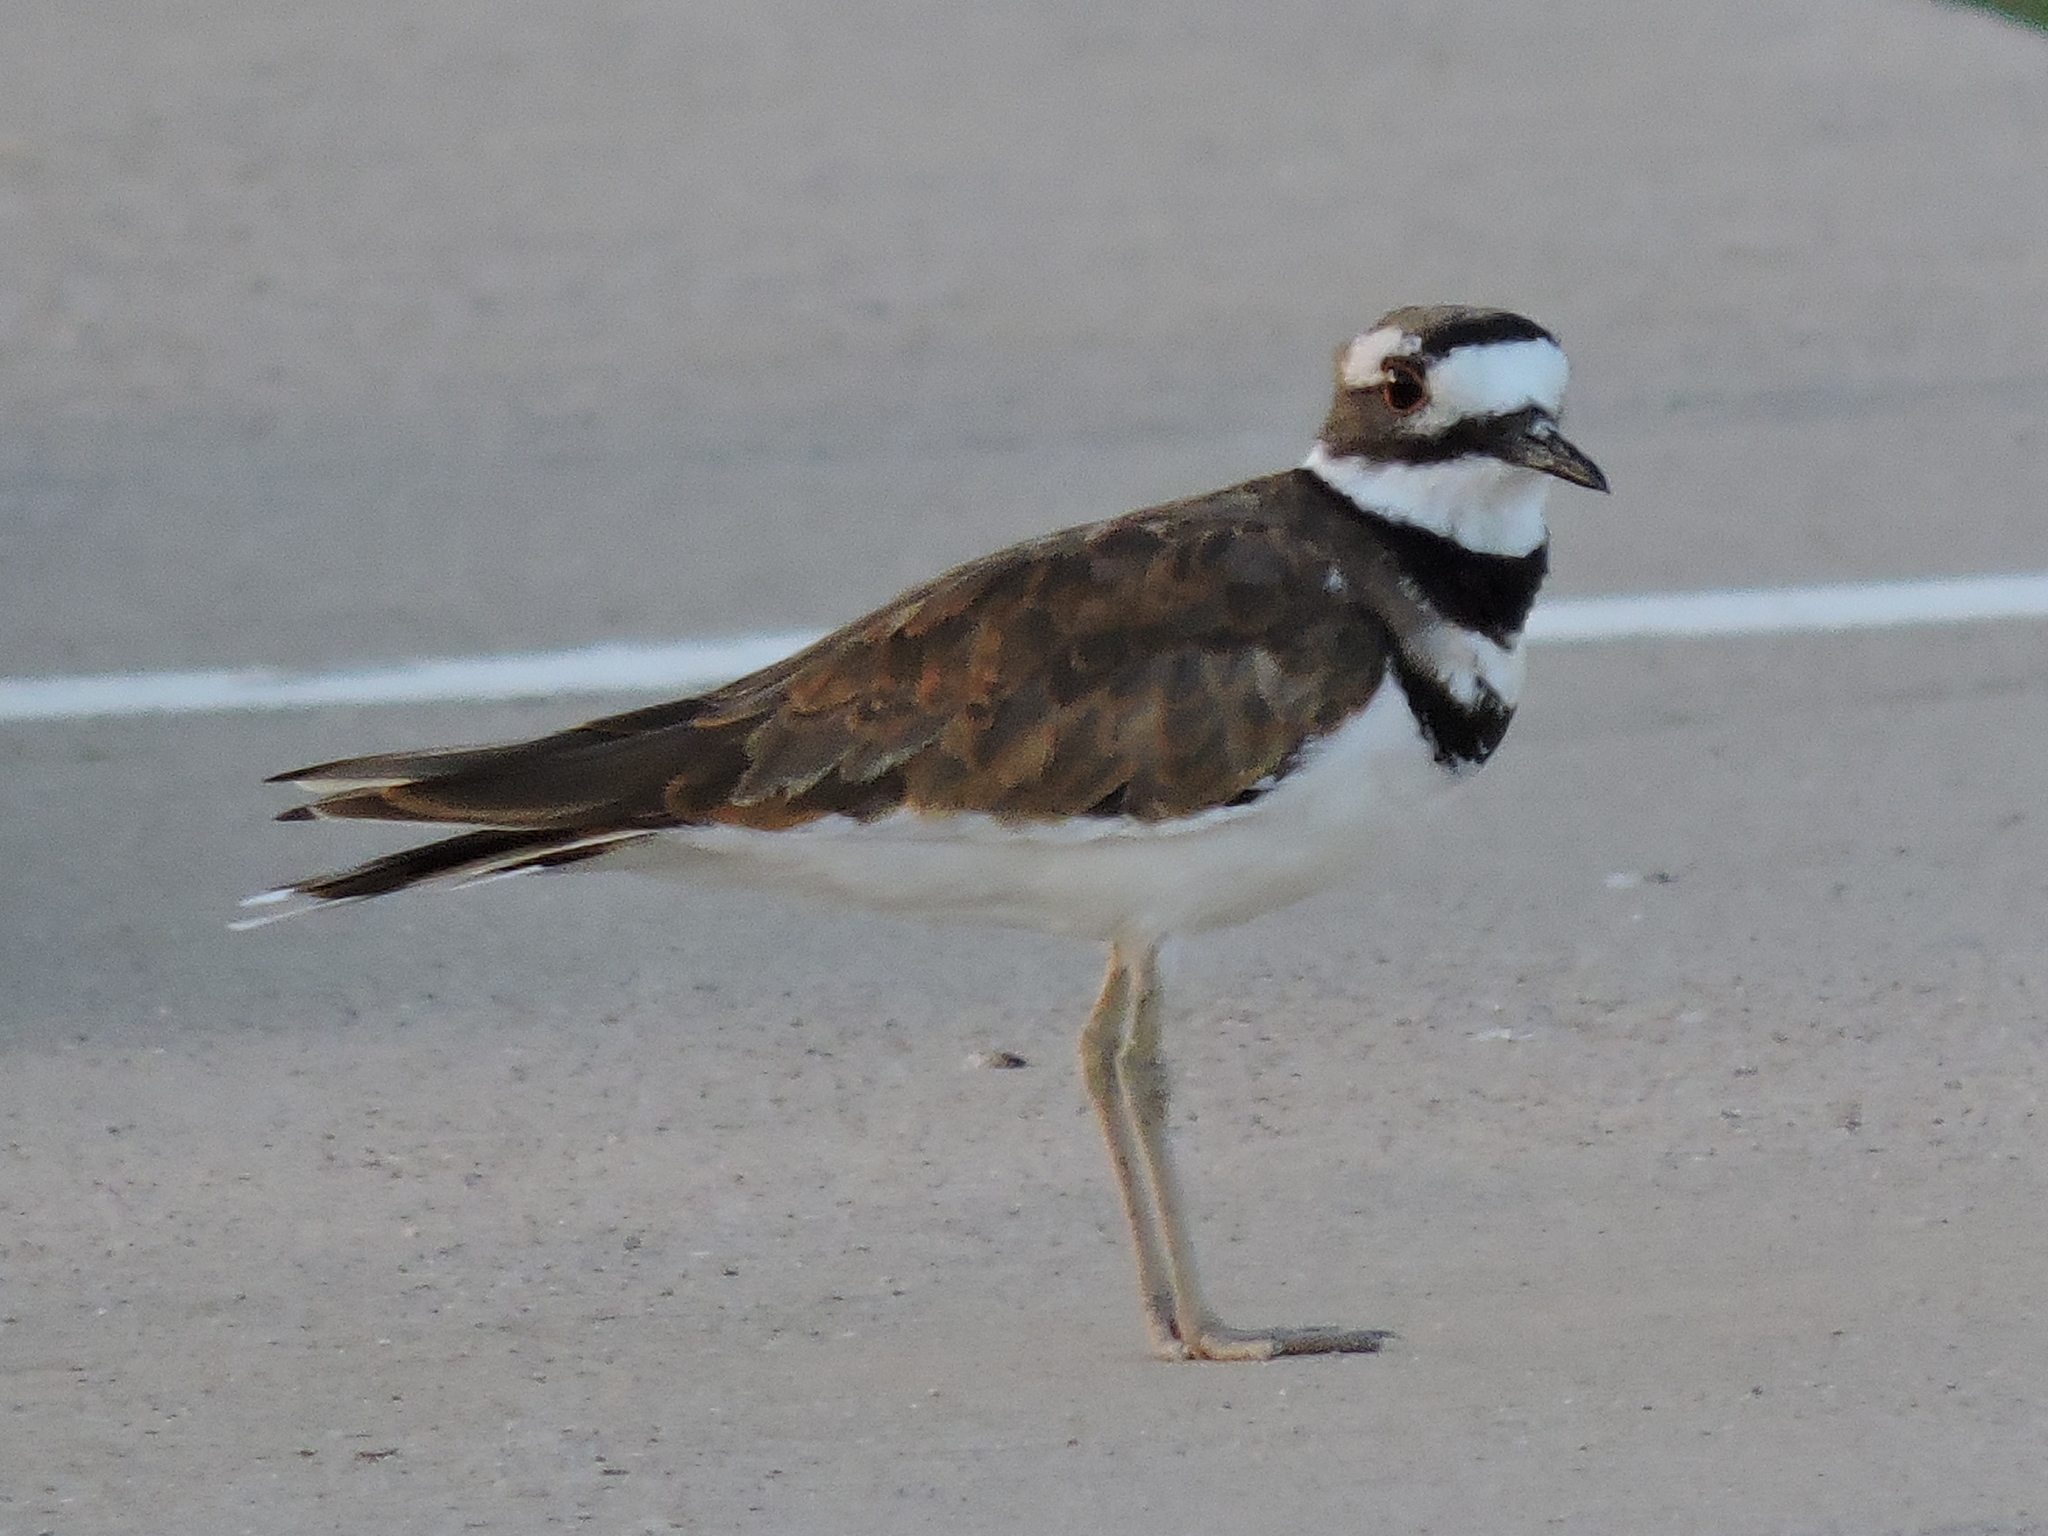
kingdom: Animalia
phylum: Chordata
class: Aves
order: Charadriiformes
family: Charadriidae
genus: Charadrius
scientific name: Charadrius vociferus
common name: Killdeer
